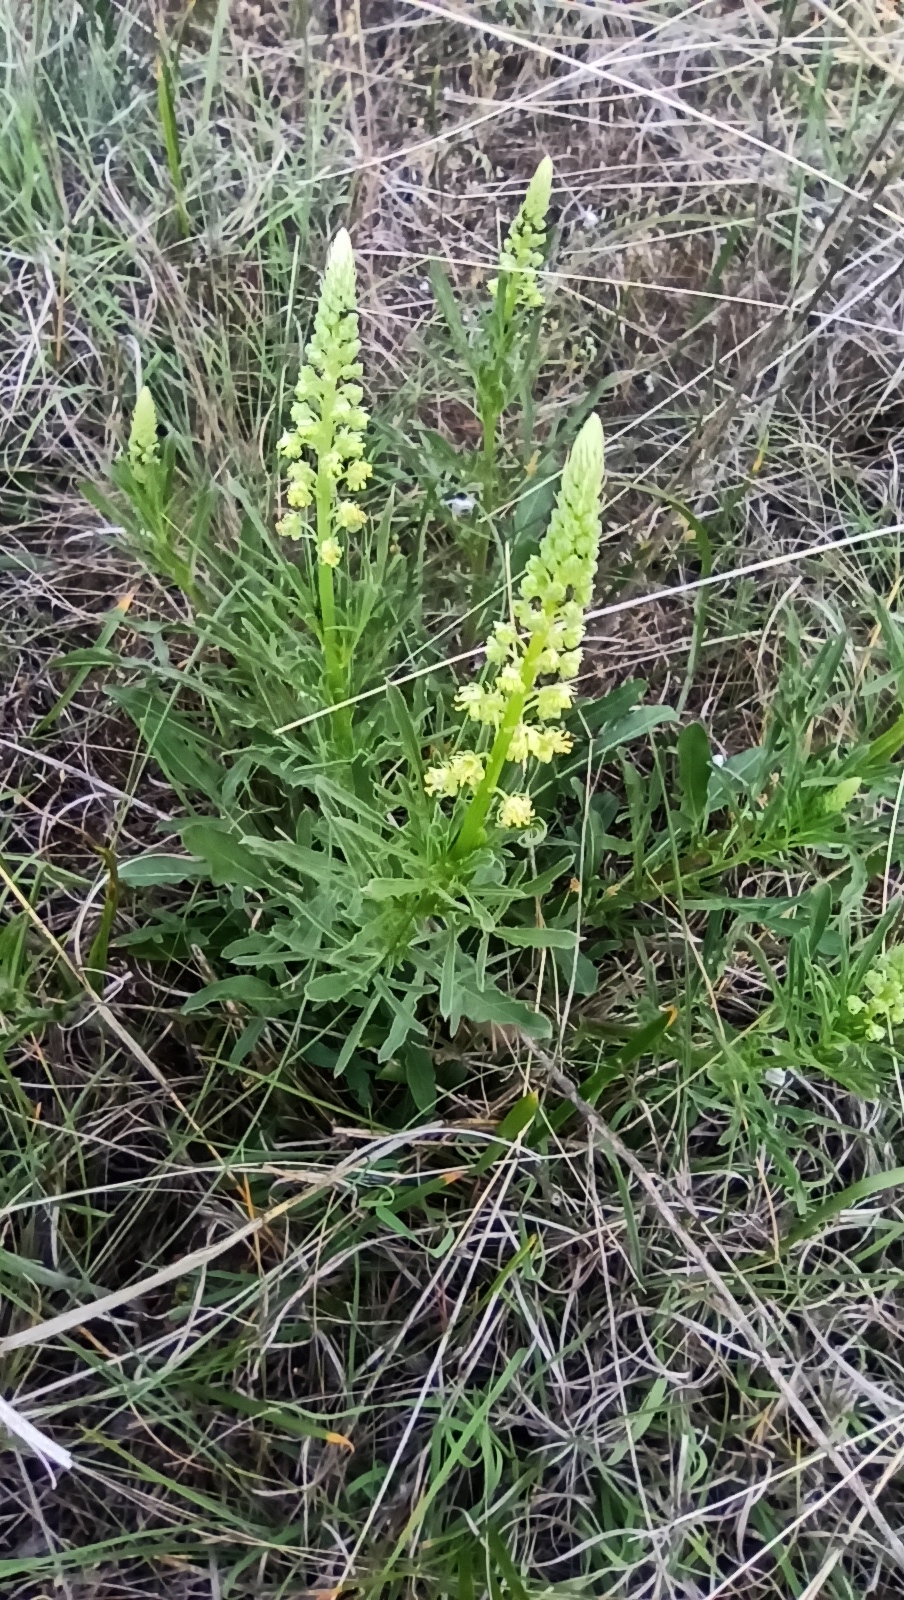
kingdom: Plantae
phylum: Tracheophyta
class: Magnoliopsida
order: Brassicales
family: Resedaceae
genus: Reseda
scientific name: Reseda lutea
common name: Wild mignonette
